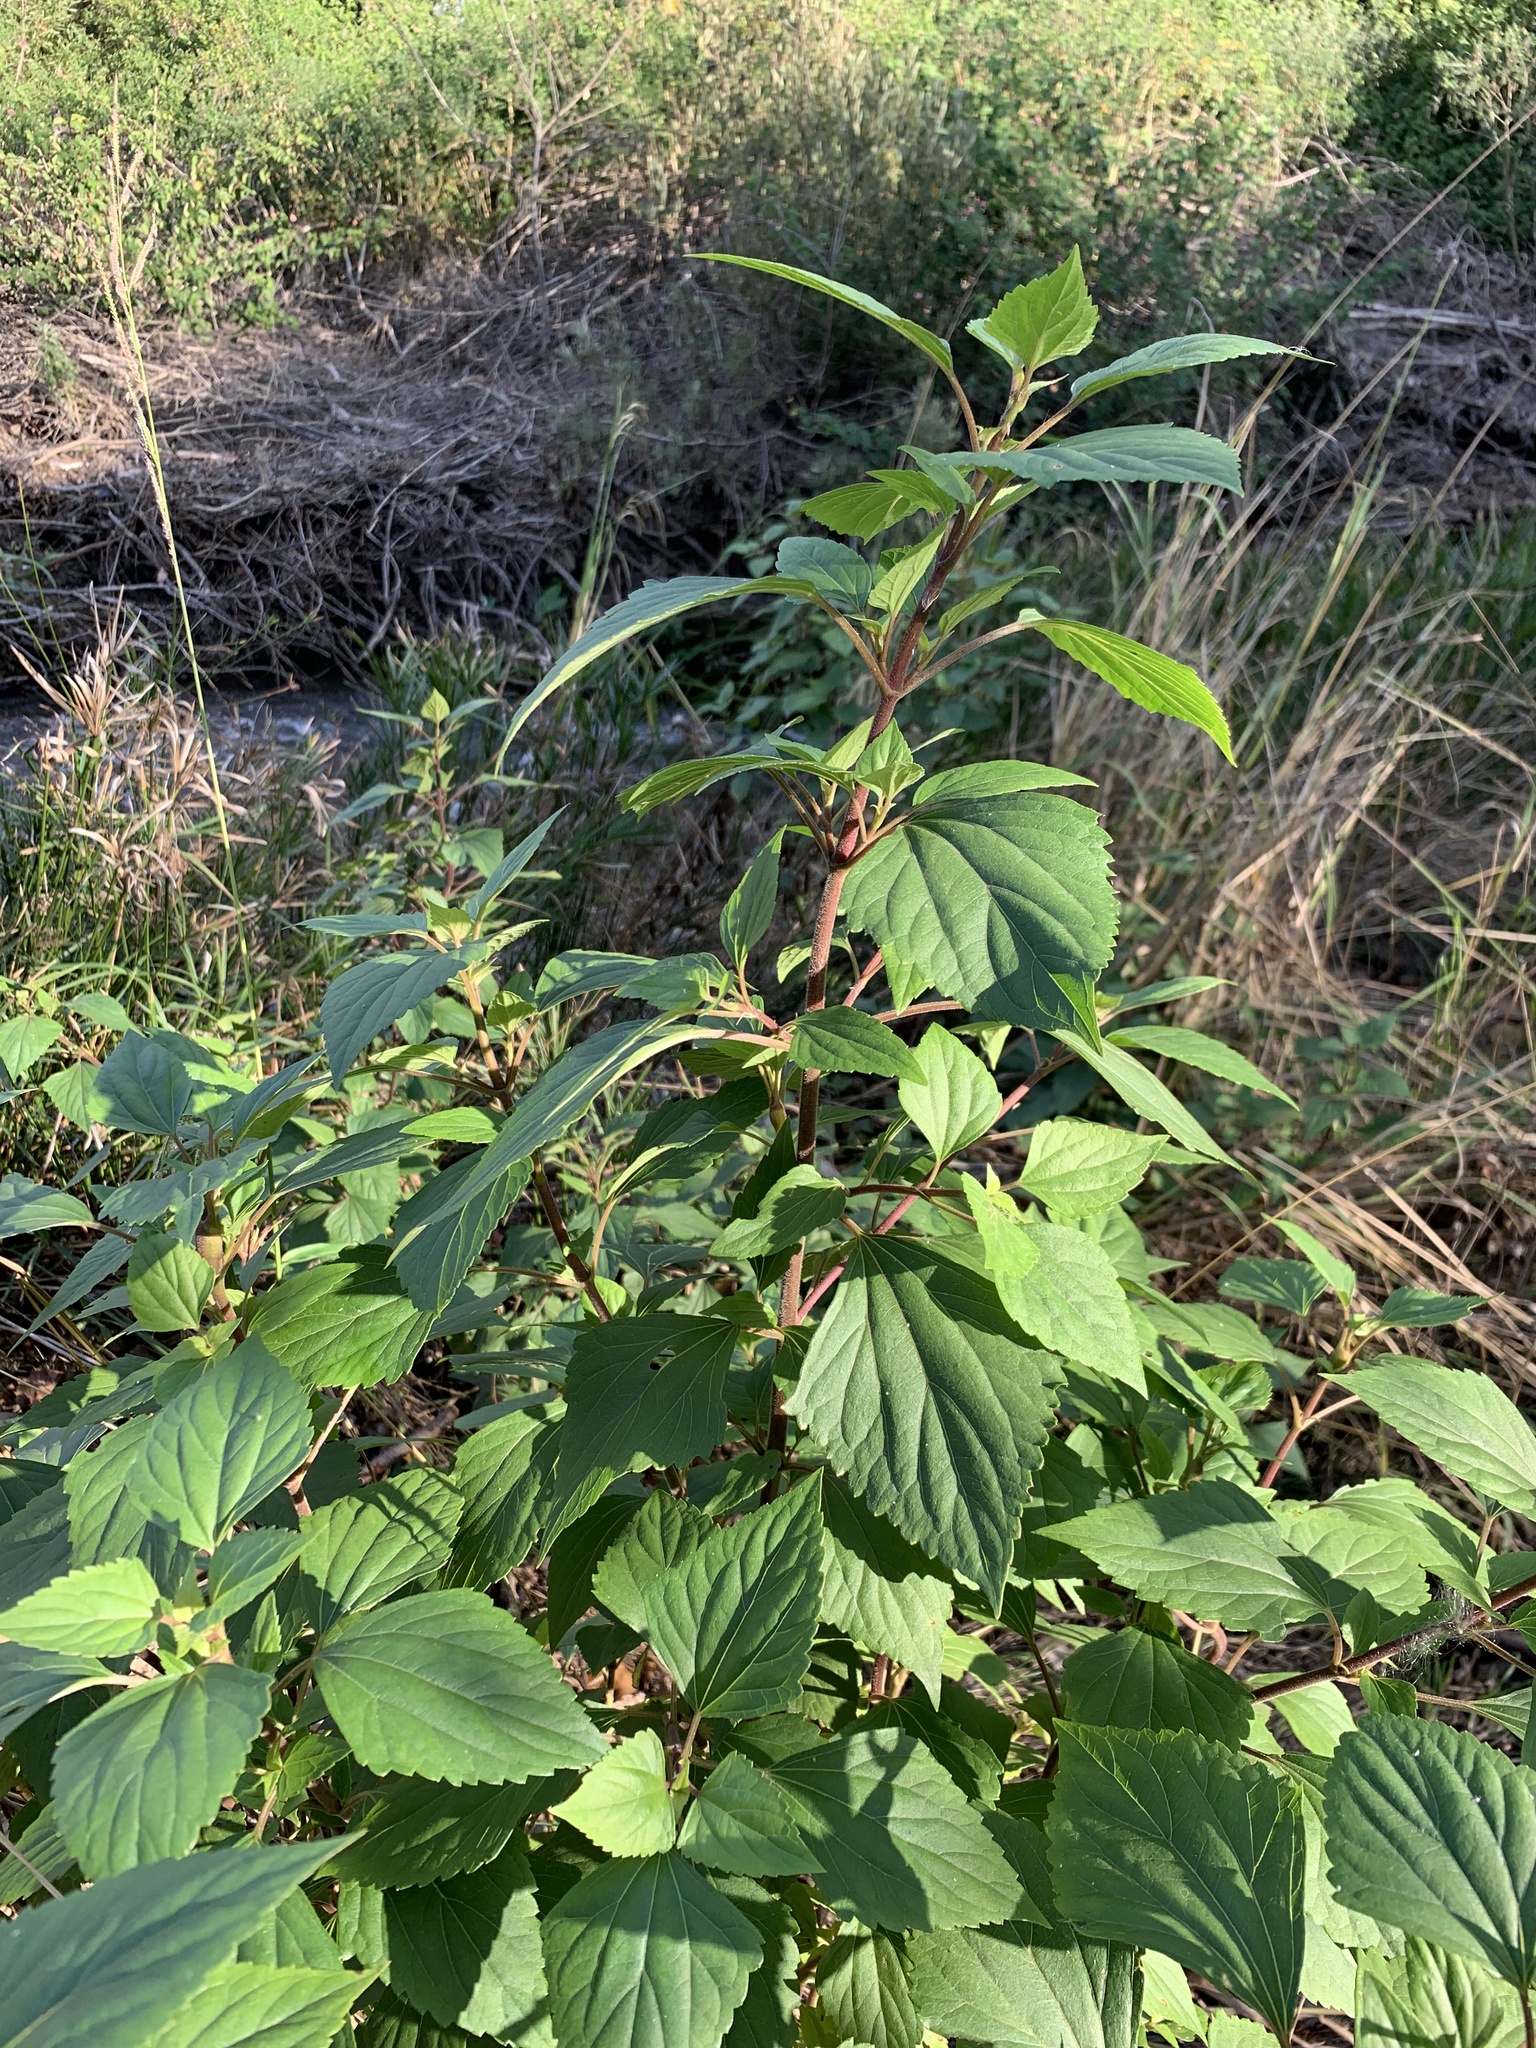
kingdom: Plantae
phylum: Tracheophyta
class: Magnoliopsida
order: Asterales
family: Asteraceae
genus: Ageratina
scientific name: Ageratina adenophora
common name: Sticky snakeroot
